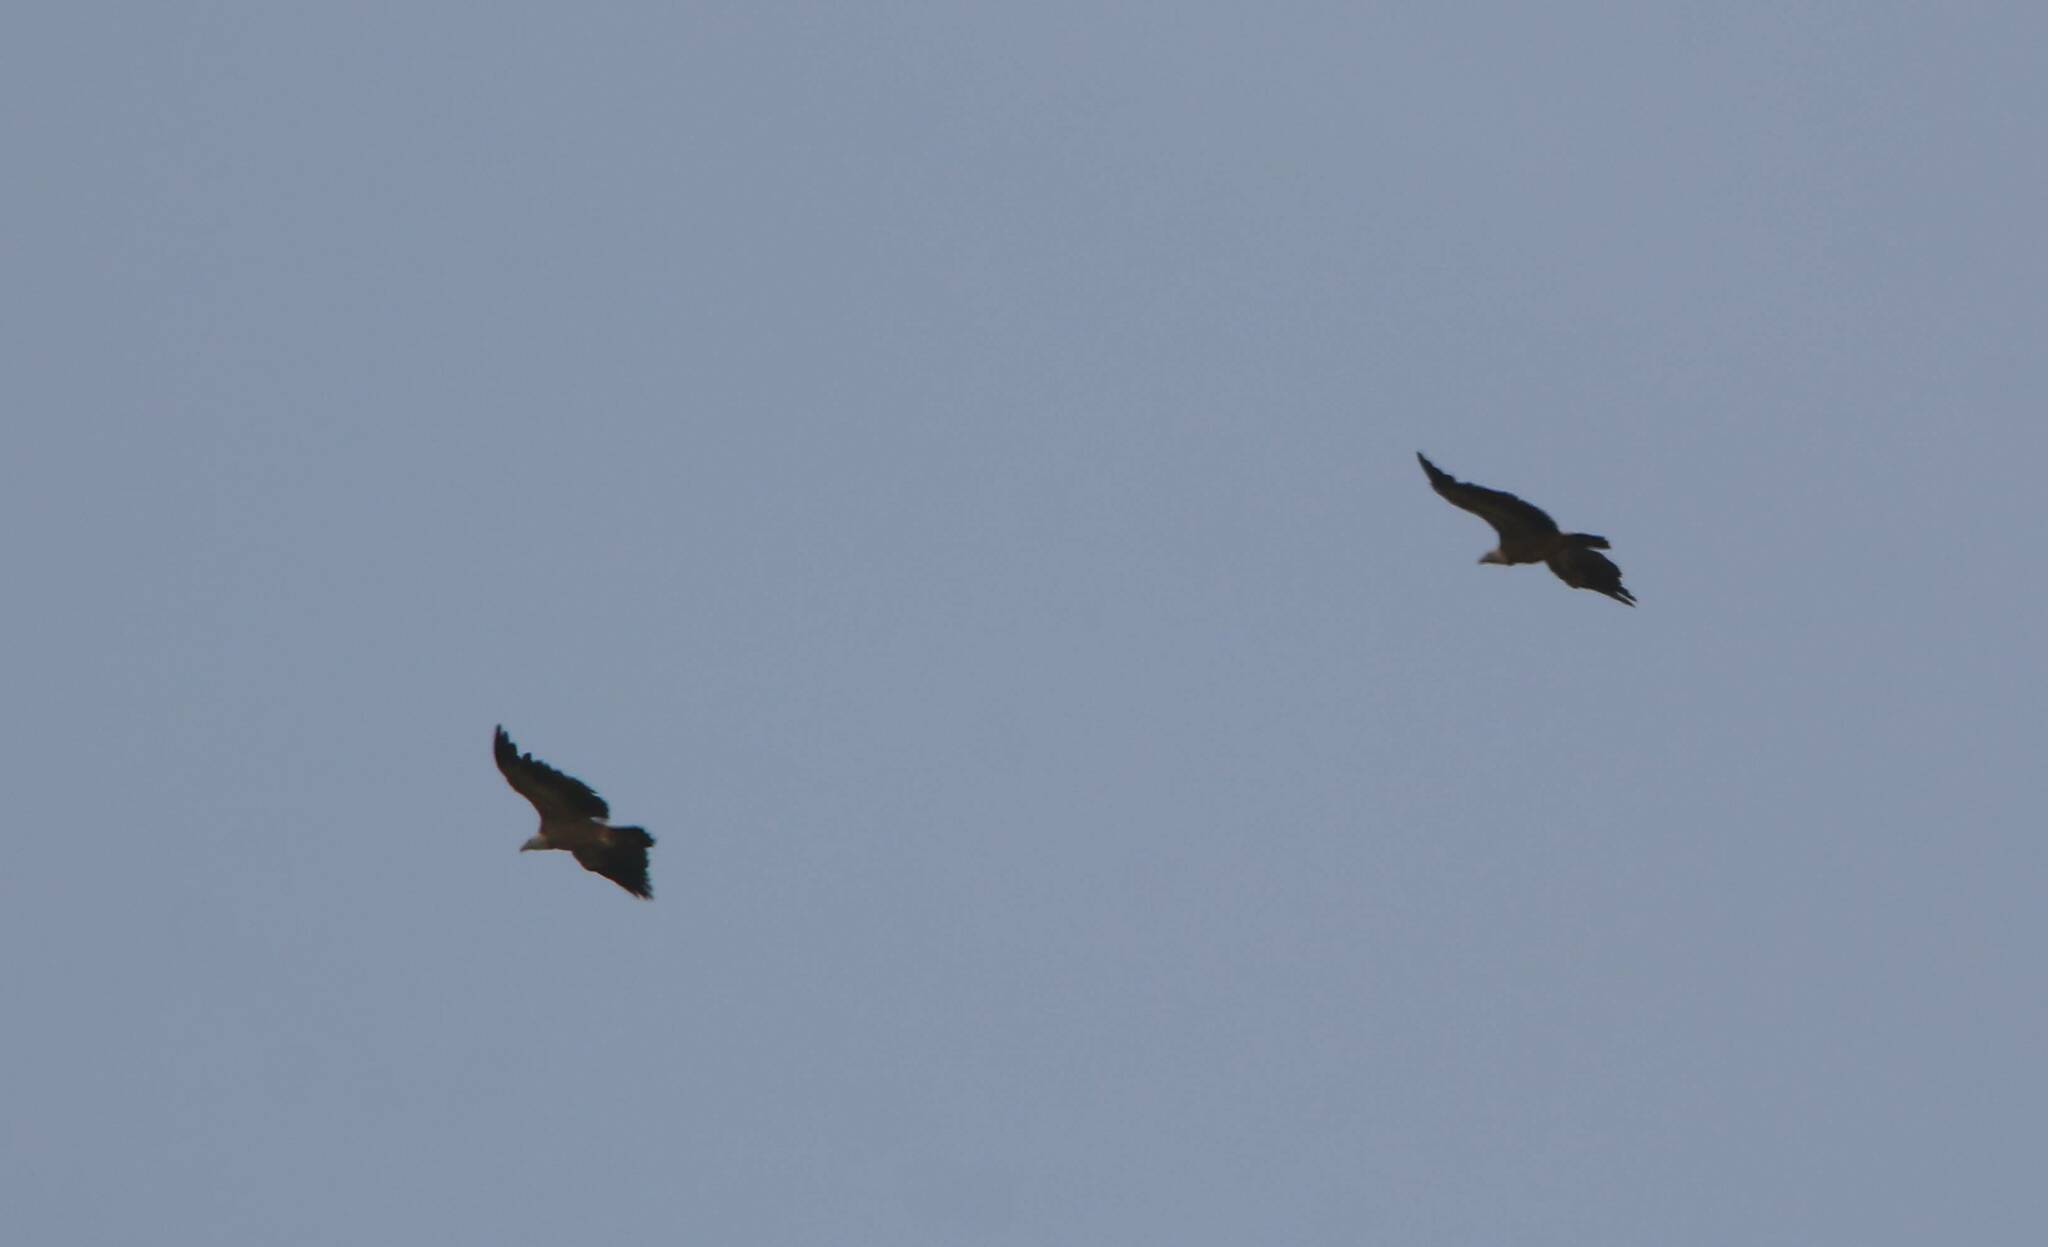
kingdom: Animalia
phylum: Chordata
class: Aves
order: Accipitriformes
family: Accipitridae
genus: Gyps
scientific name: Gyps fulvus
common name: Griffon vulture
